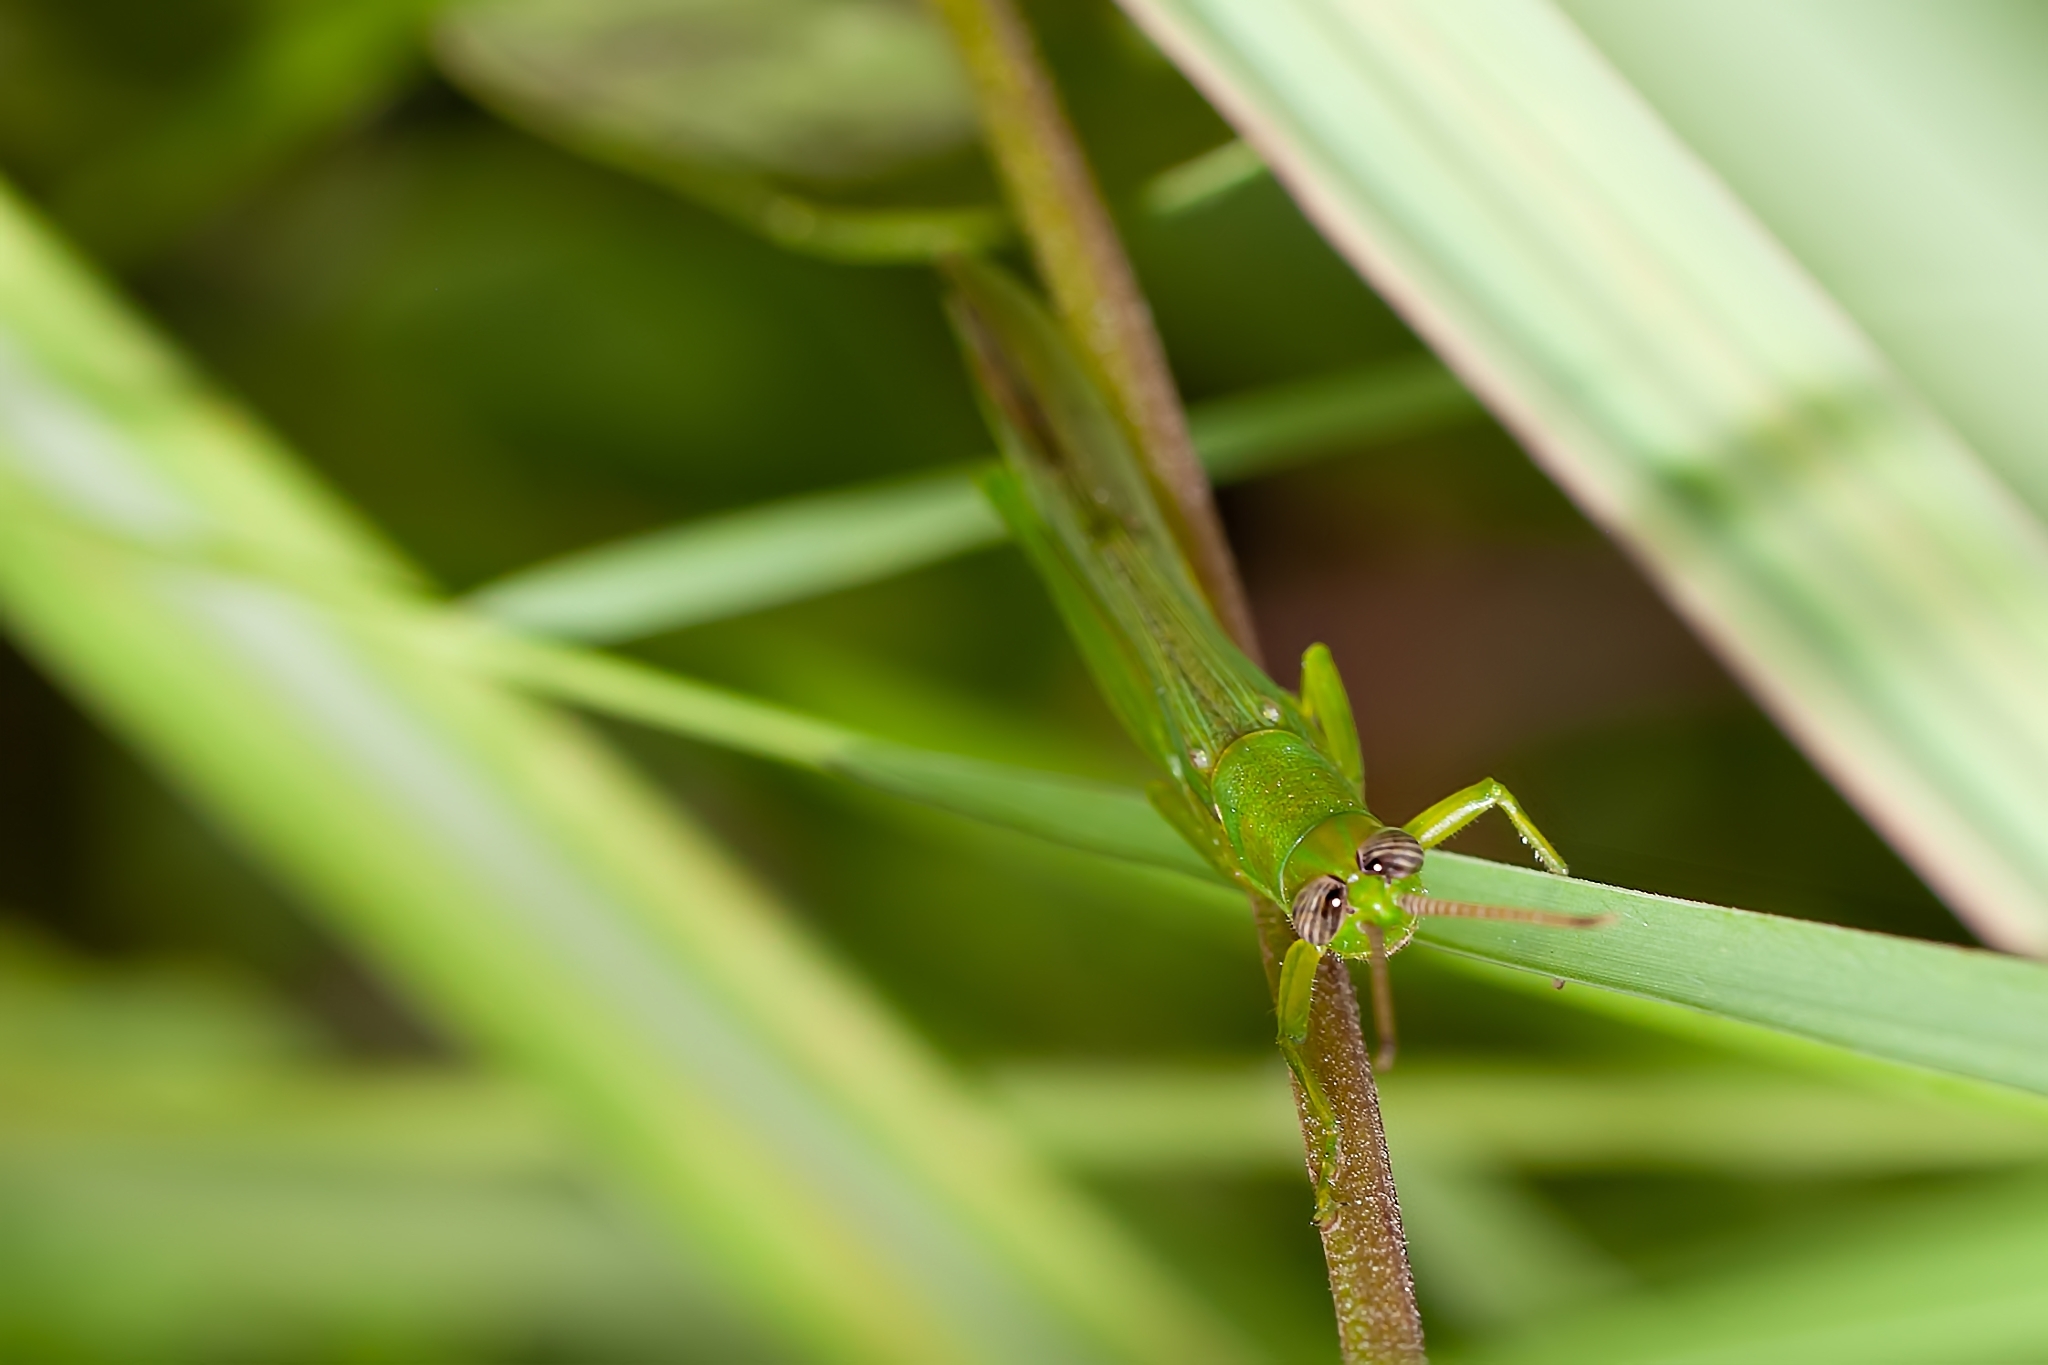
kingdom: Animalia
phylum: Arthropoda
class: Insecta
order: Orthoptera
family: Acrididae
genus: Stenacris
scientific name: Stenacris vitreipennis
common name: Glassy-winged toothpick grasshopper
